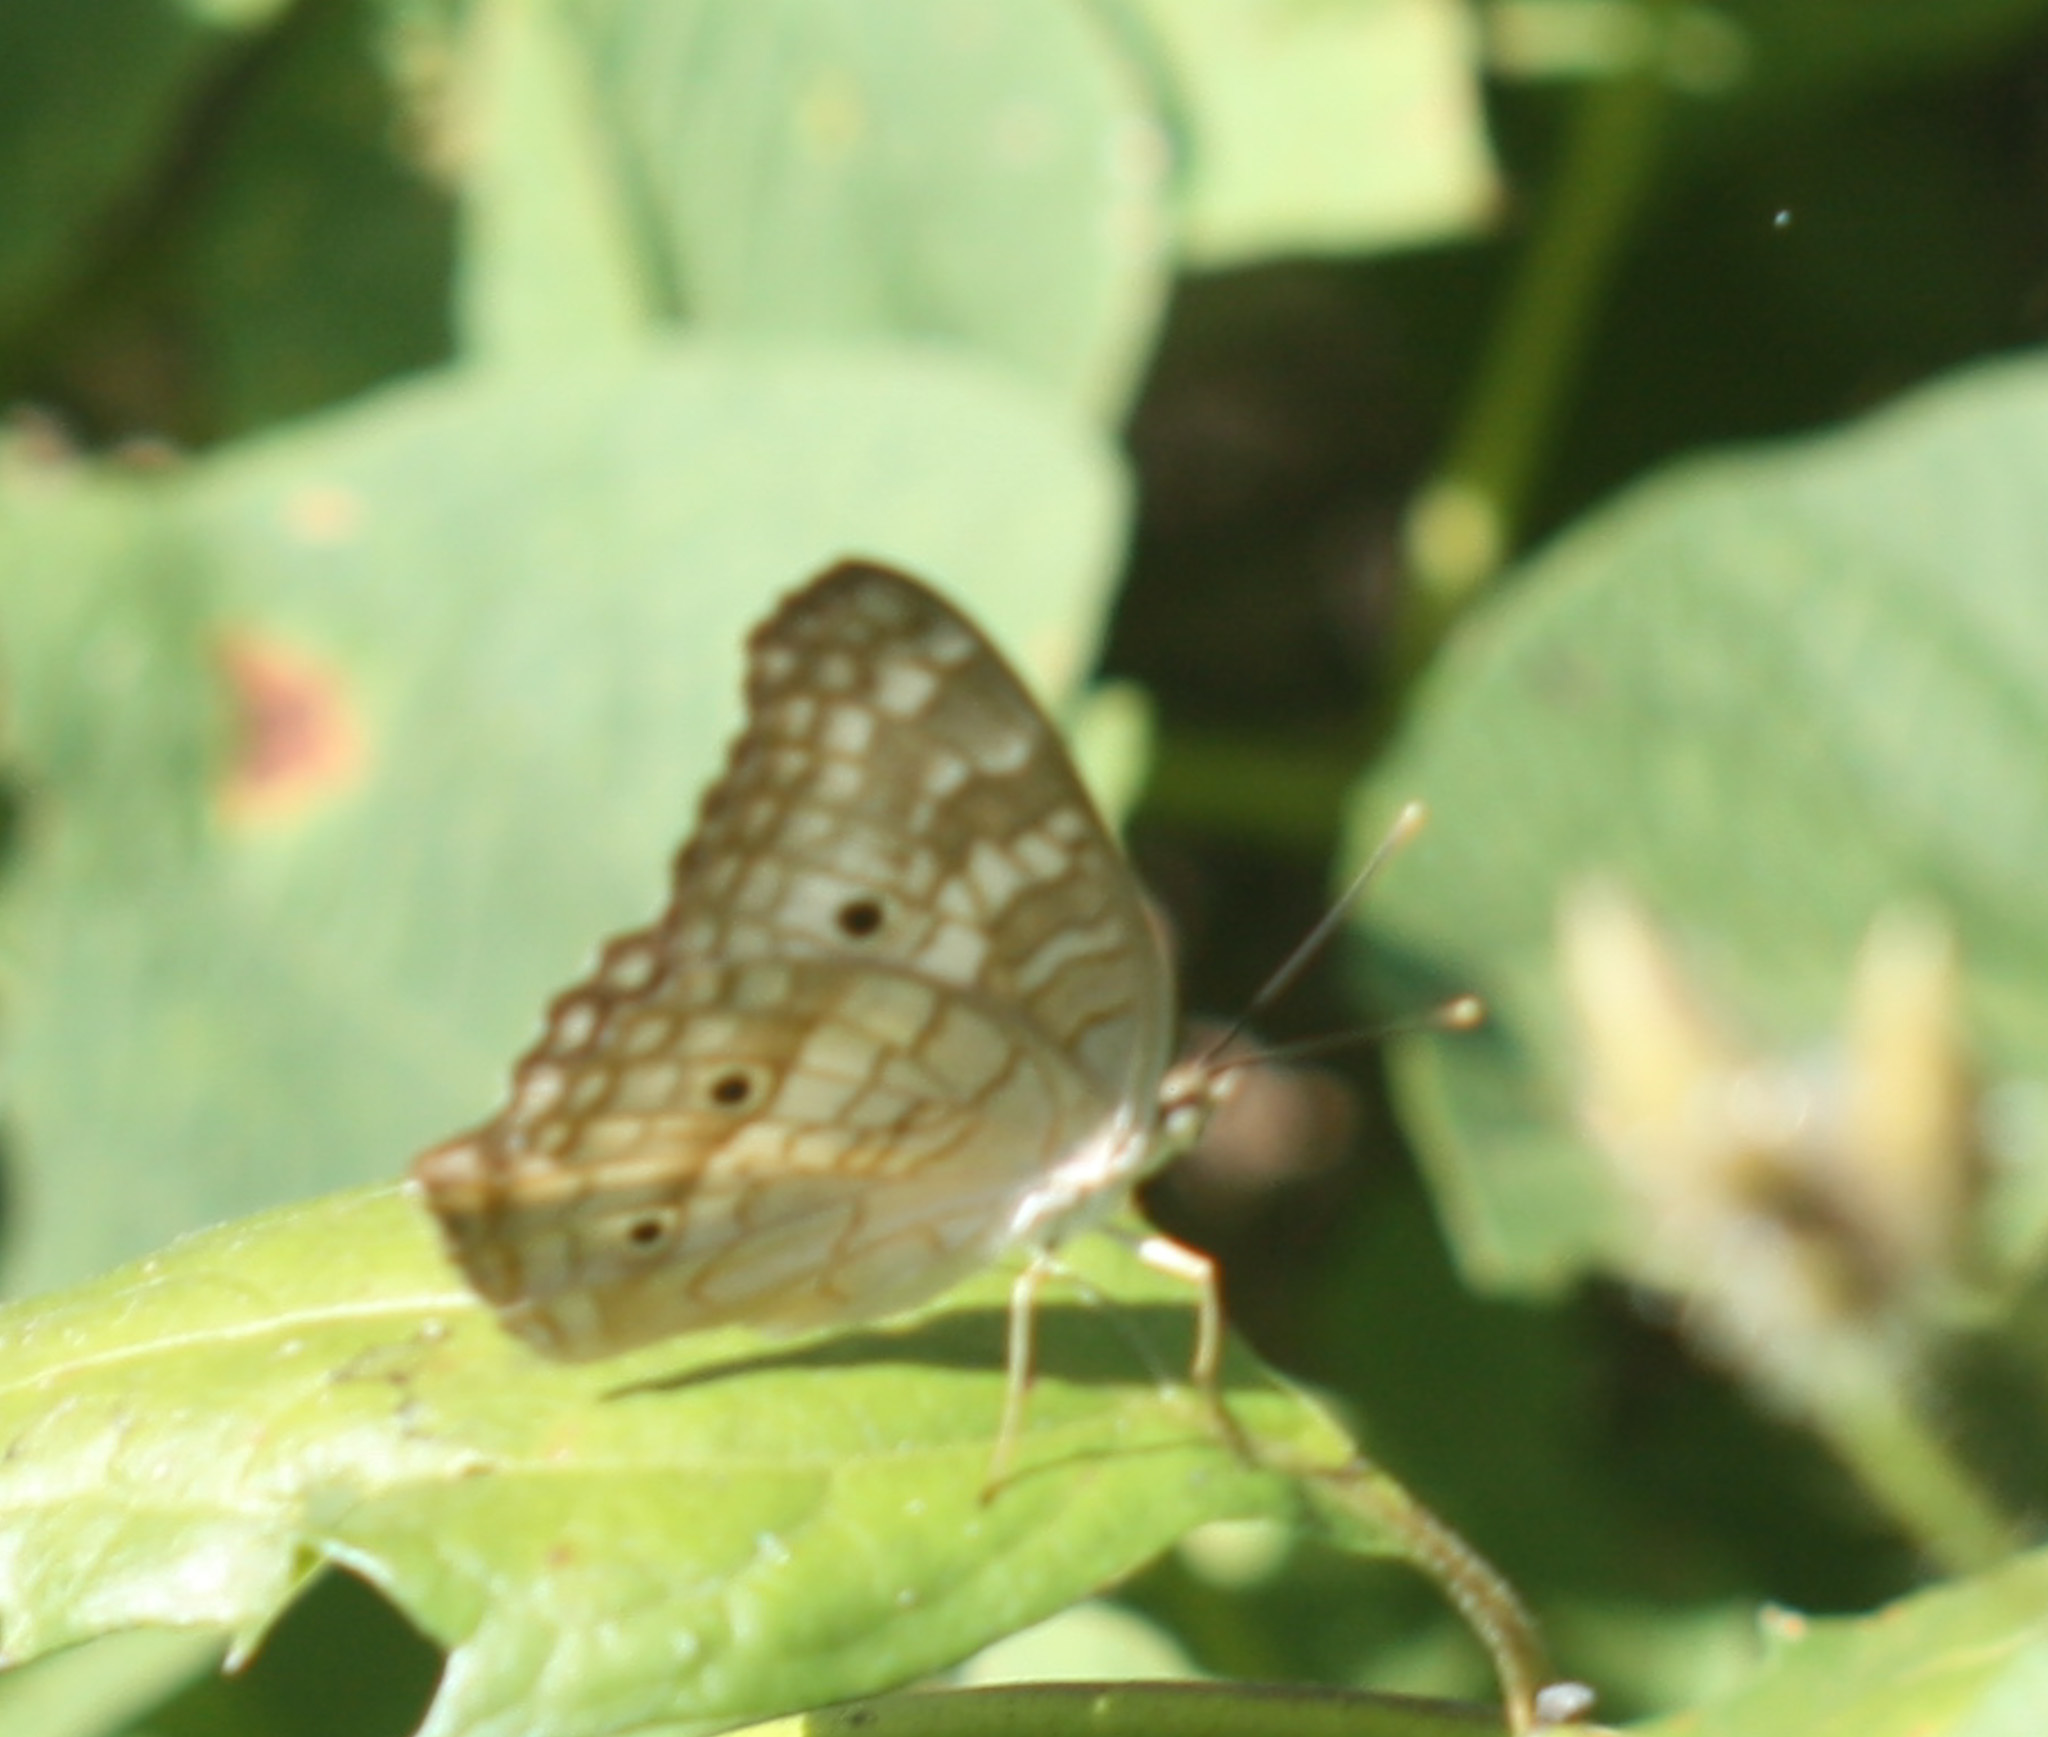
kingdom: Animalia
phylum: Arthropoda
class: Insecta
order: Lepidoptera
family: Nymphalidae
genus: Anartia
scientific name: Anartia jatrophae
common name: White peacock
